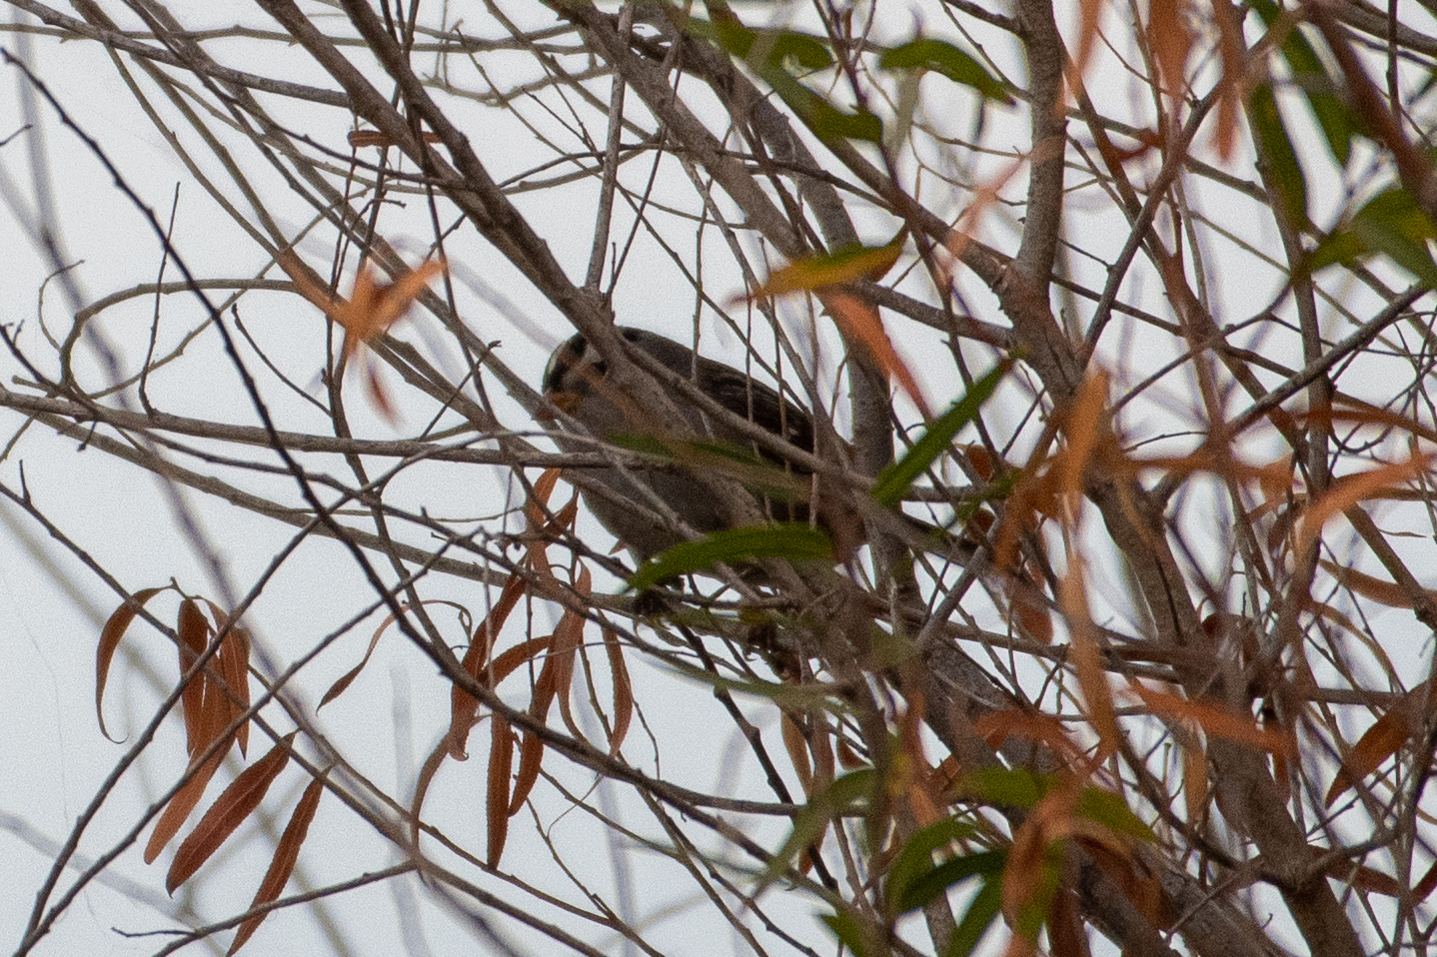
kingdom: Animalia
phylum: Chordata
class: Aves
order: Passeriformes
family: Passerellidae
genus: Zonotrichia
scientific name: Zonotrichia leucophrys
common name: White-crowned sparrow
